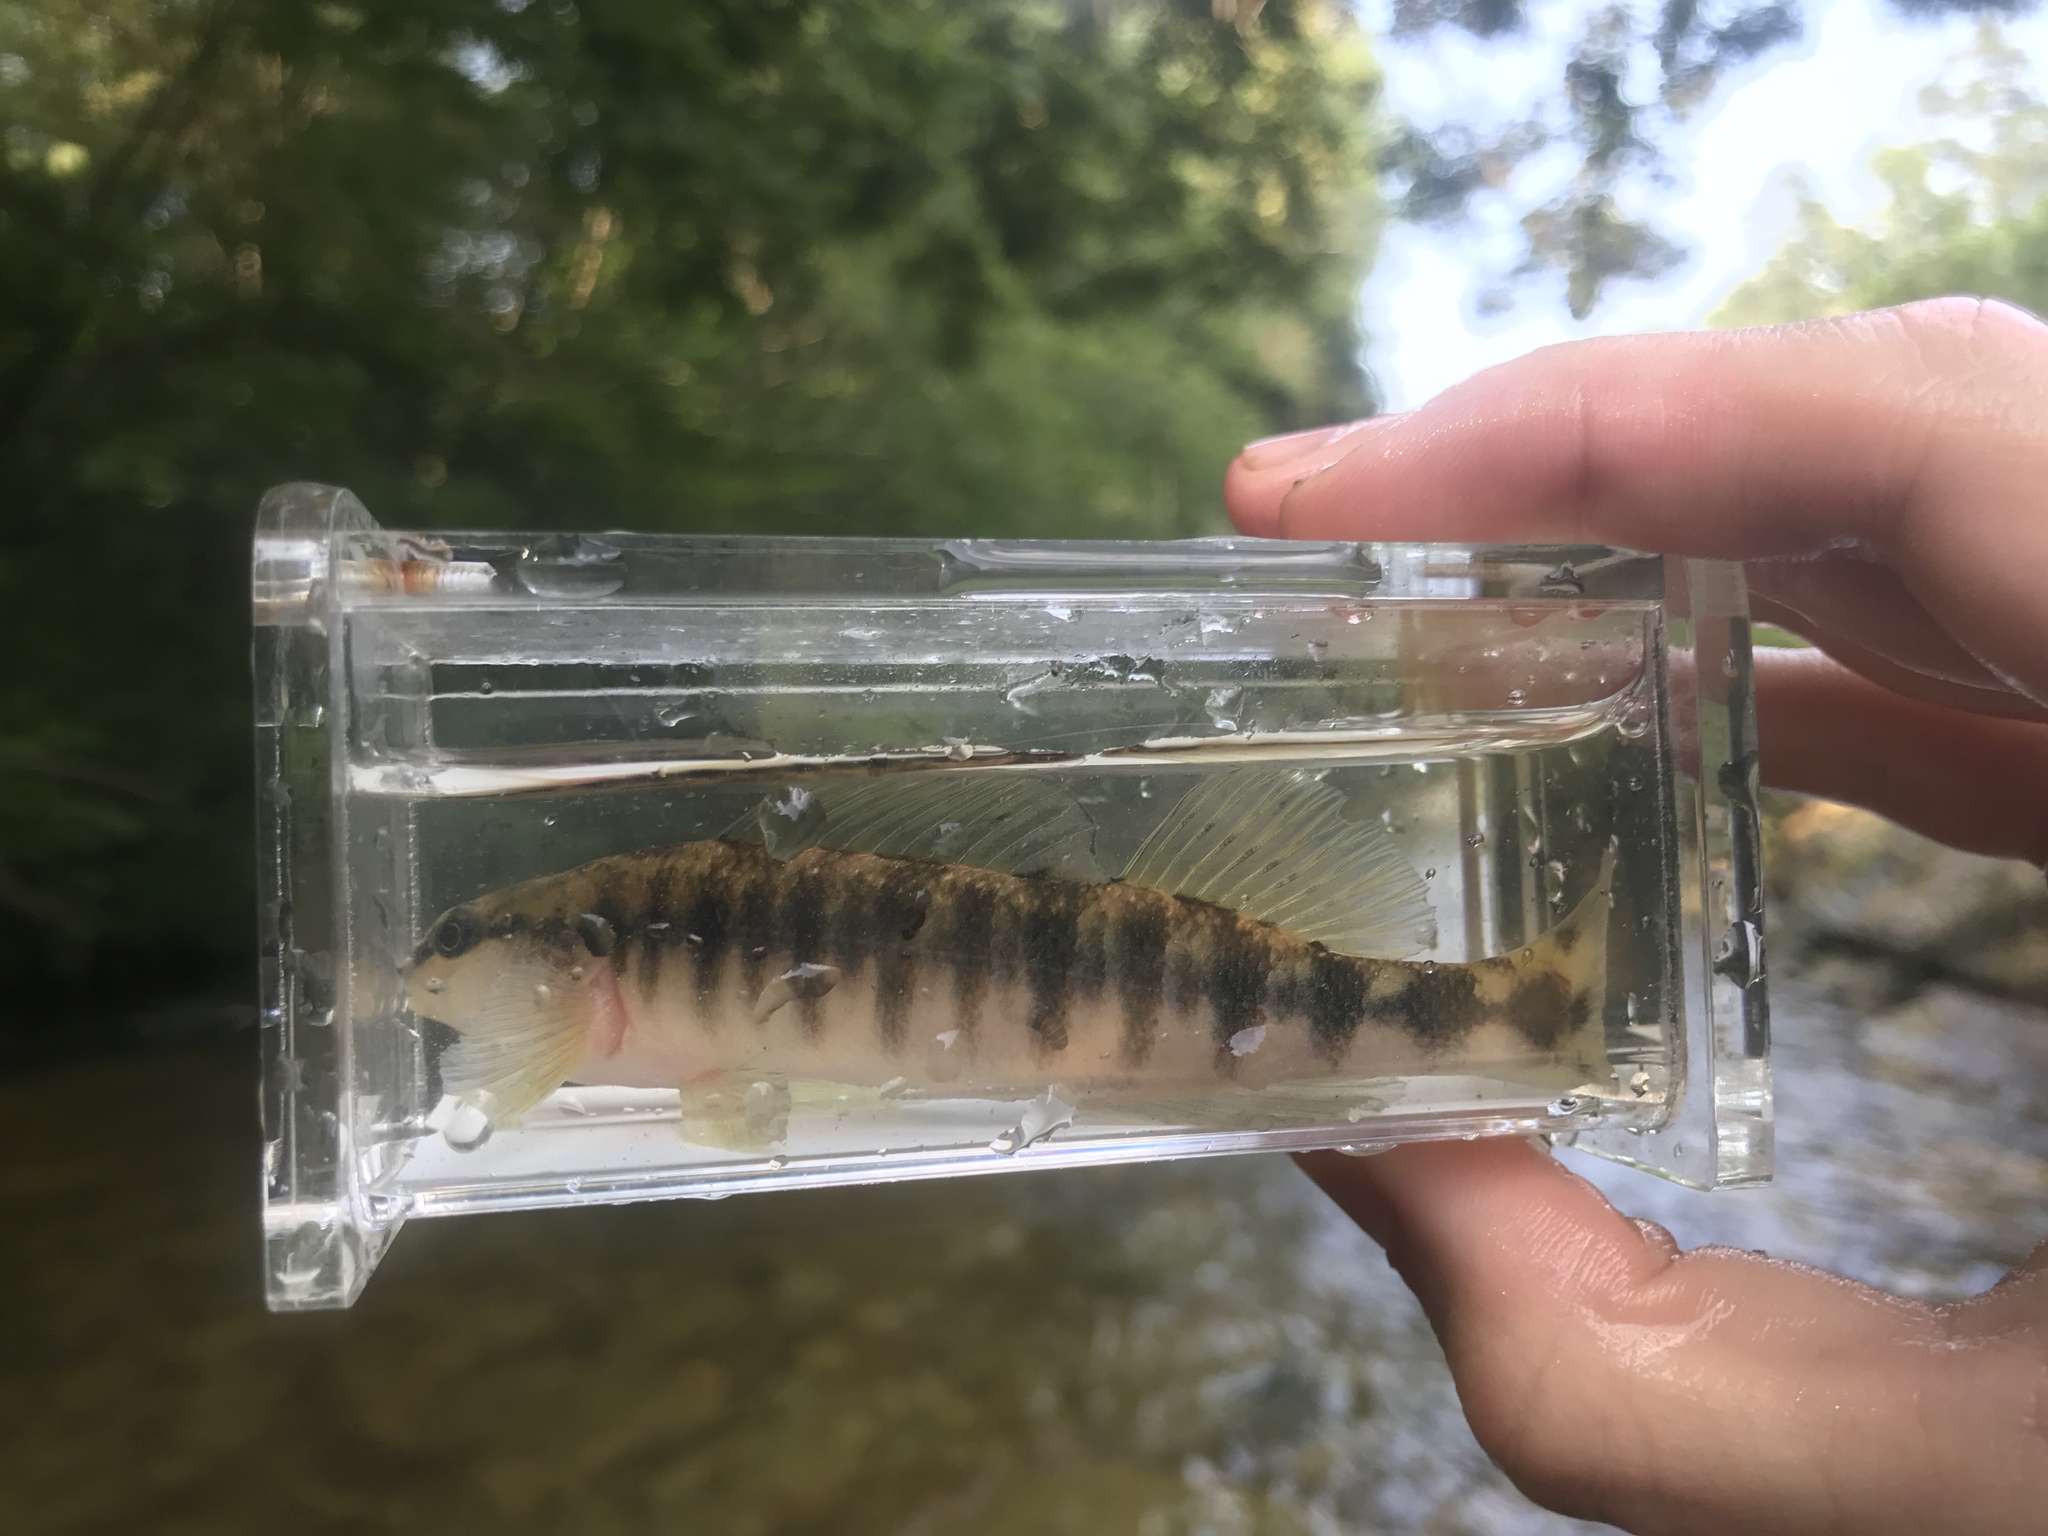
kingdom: Animalia
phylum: Chordata
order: Perciformes
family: Percidae
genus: Percina
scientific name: Percina nigrofasciata
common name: Blackbanded darter
